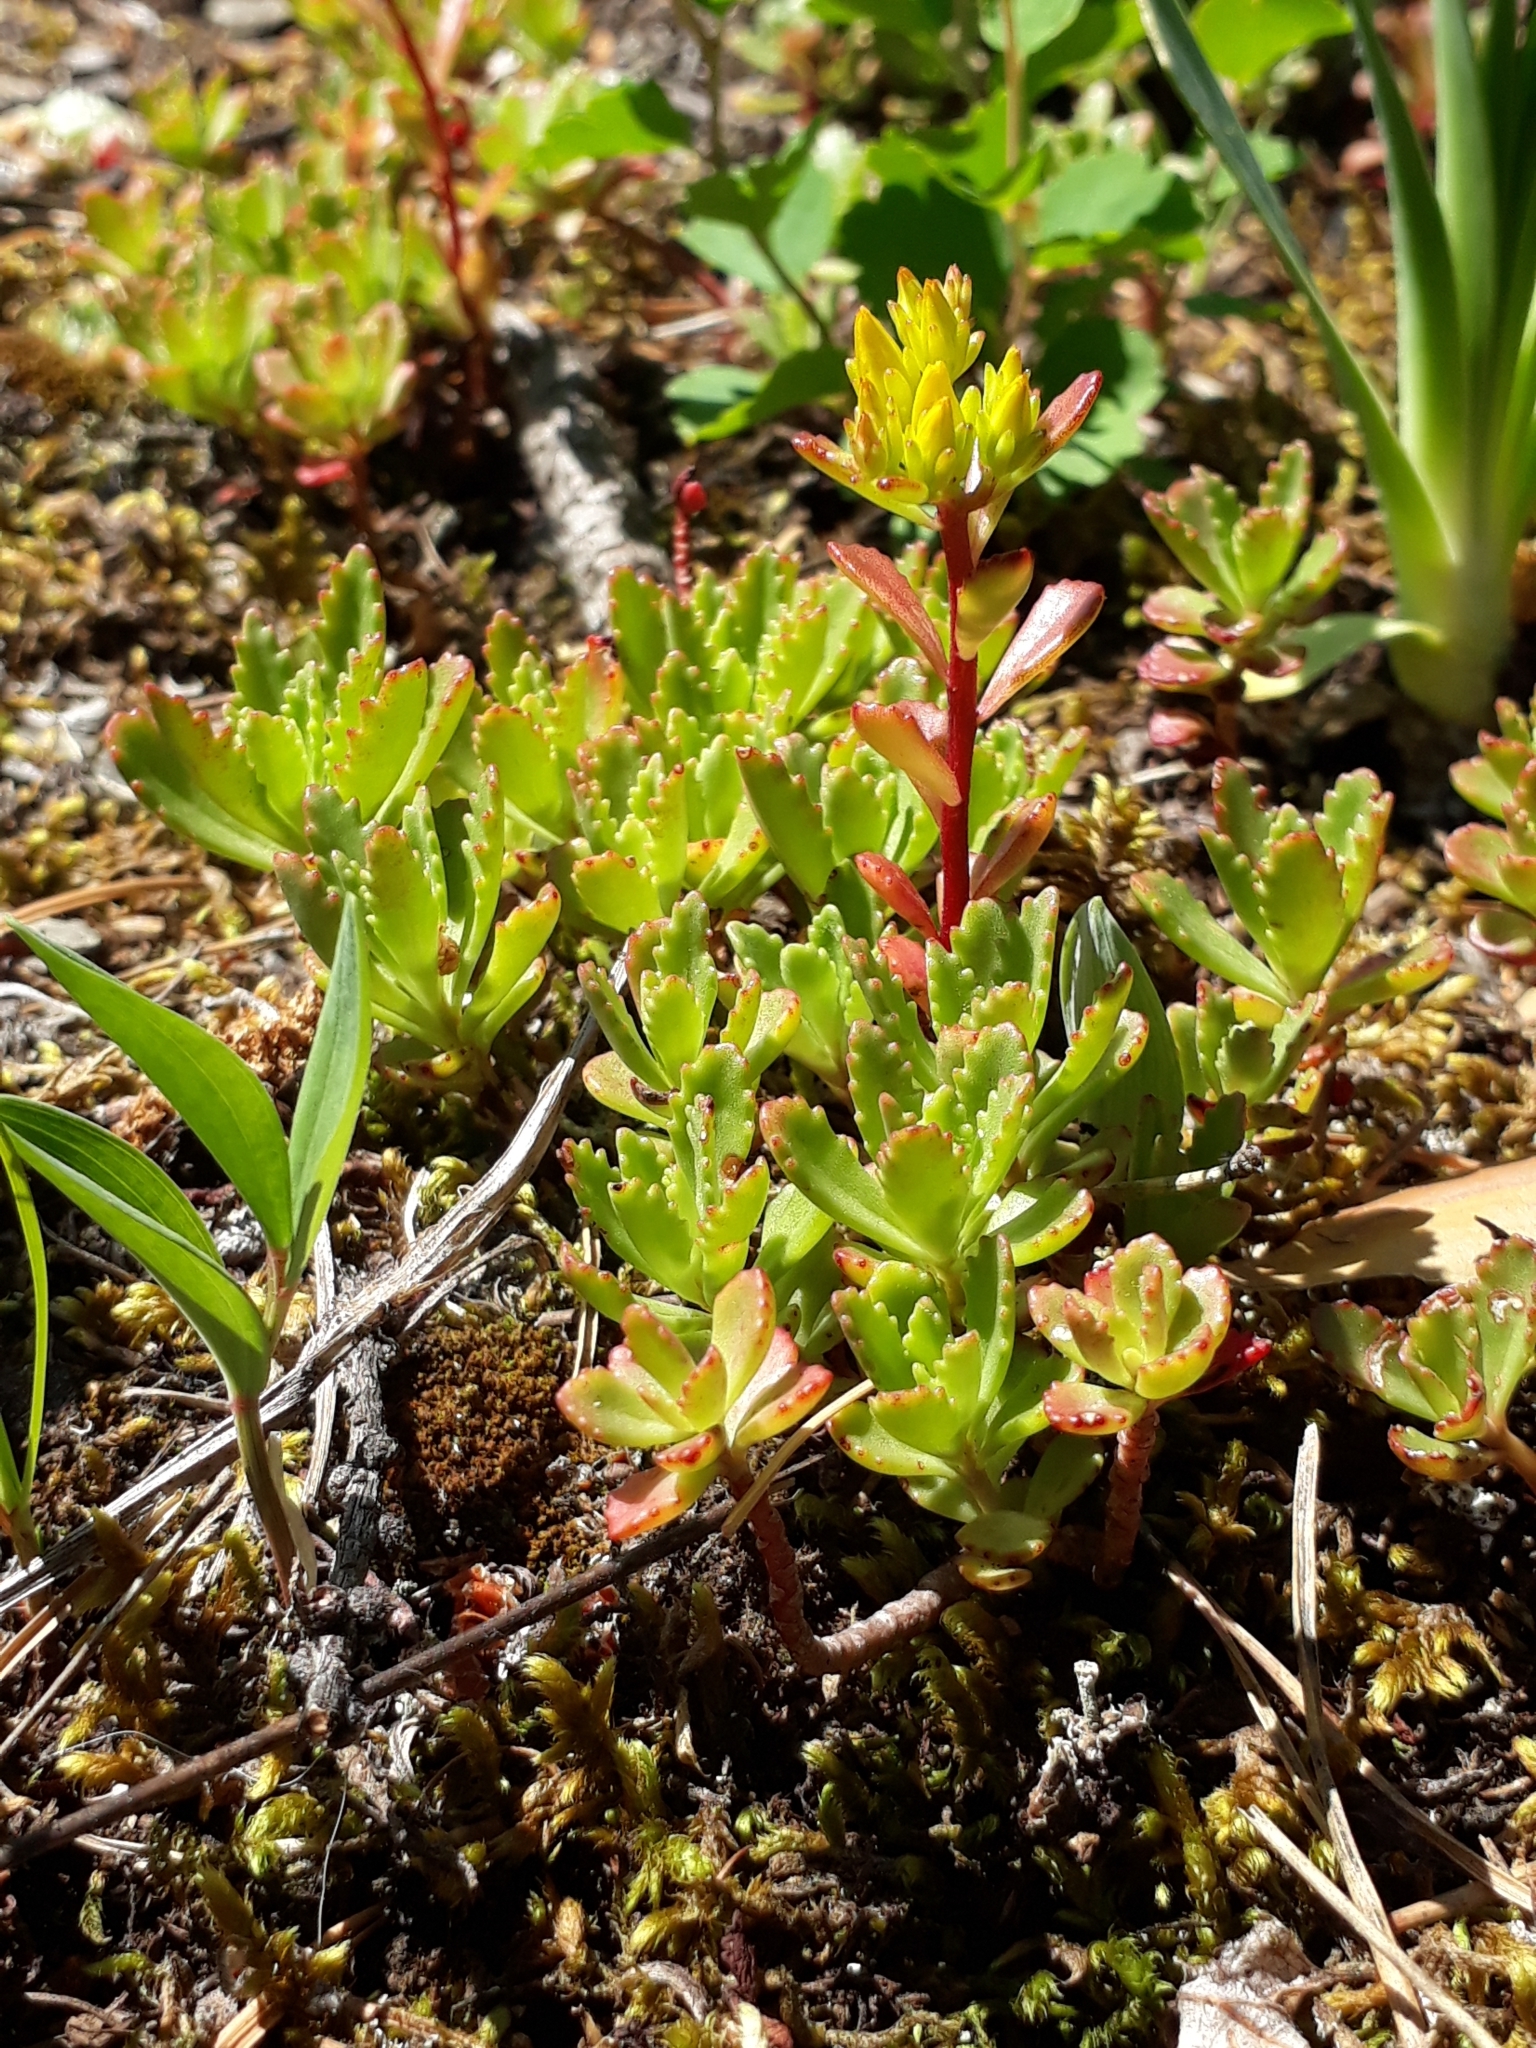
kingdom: Plantae
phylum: Tracheophyta
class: Magnoliopsida
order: Saxifragales
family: Crassulaceae
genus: Phedimus
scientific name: Phedimus hybridus
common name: Hybrid stonecrop
